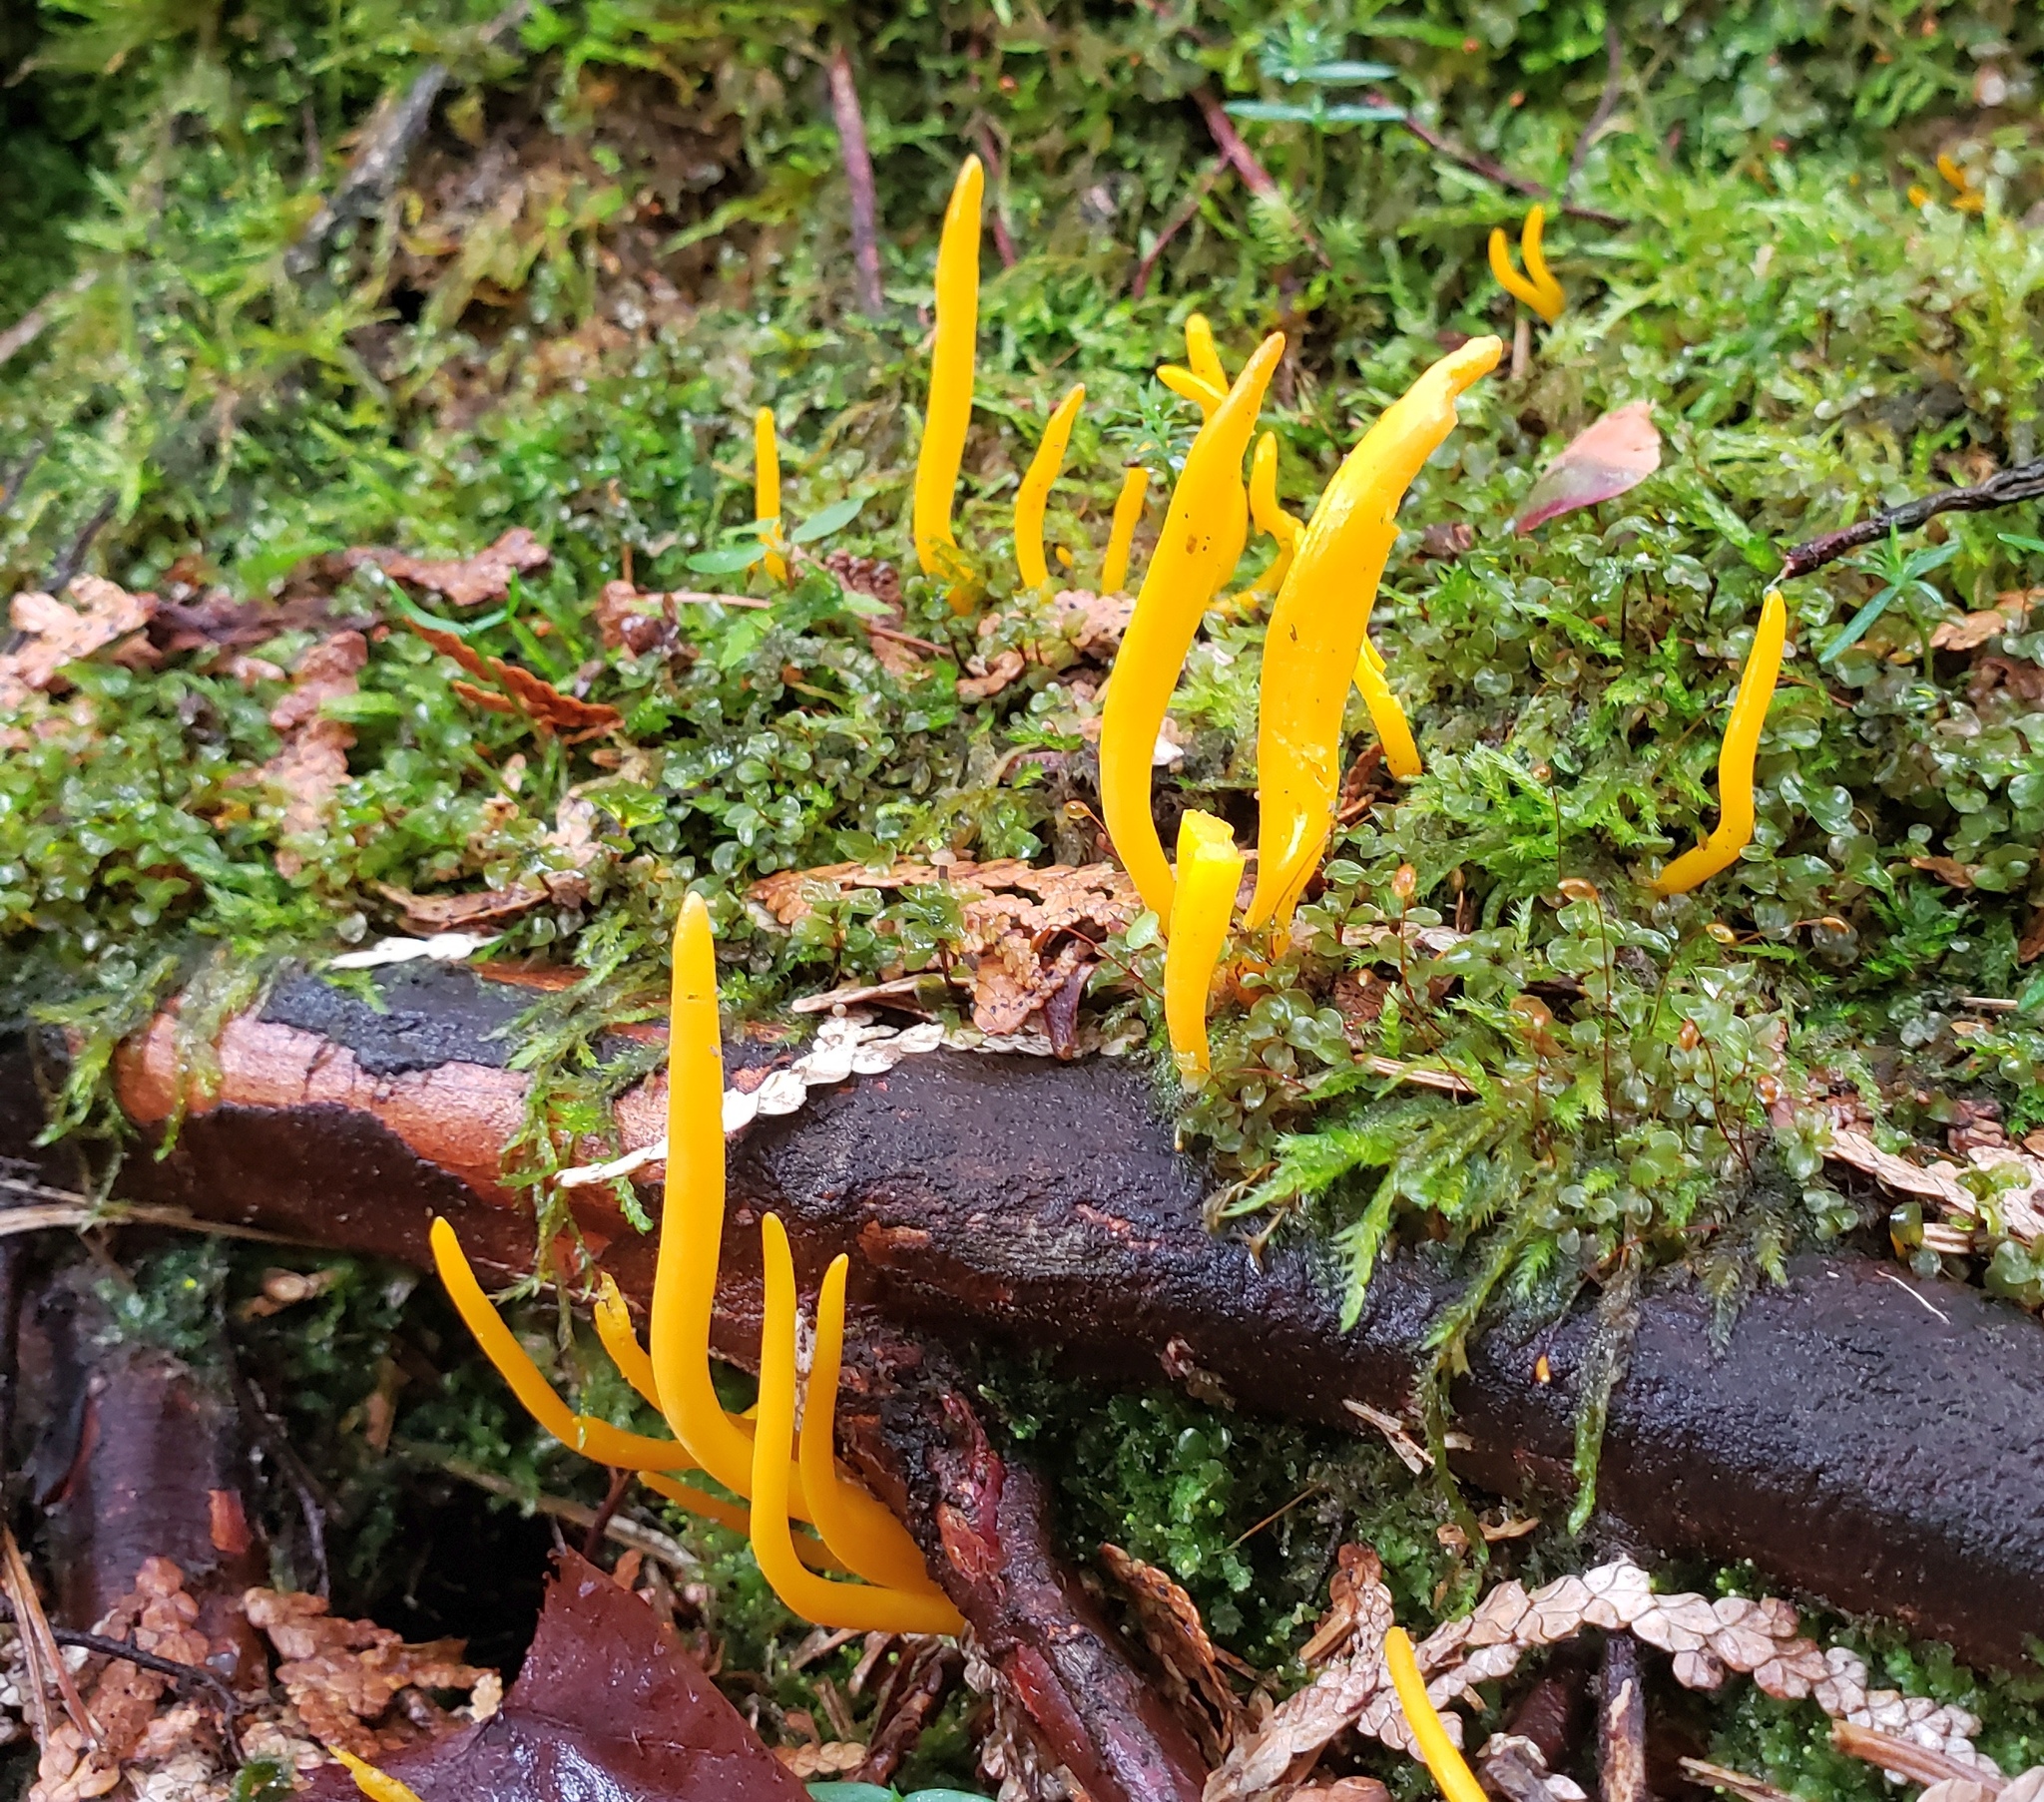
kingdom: Fungi
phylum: Basidiomycota
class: Agaricomycetes
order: Agaricales
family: Clavariaceae
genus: Clavulinopsis
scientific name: Clavulinopsis fusiformis
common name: Golden spindles
